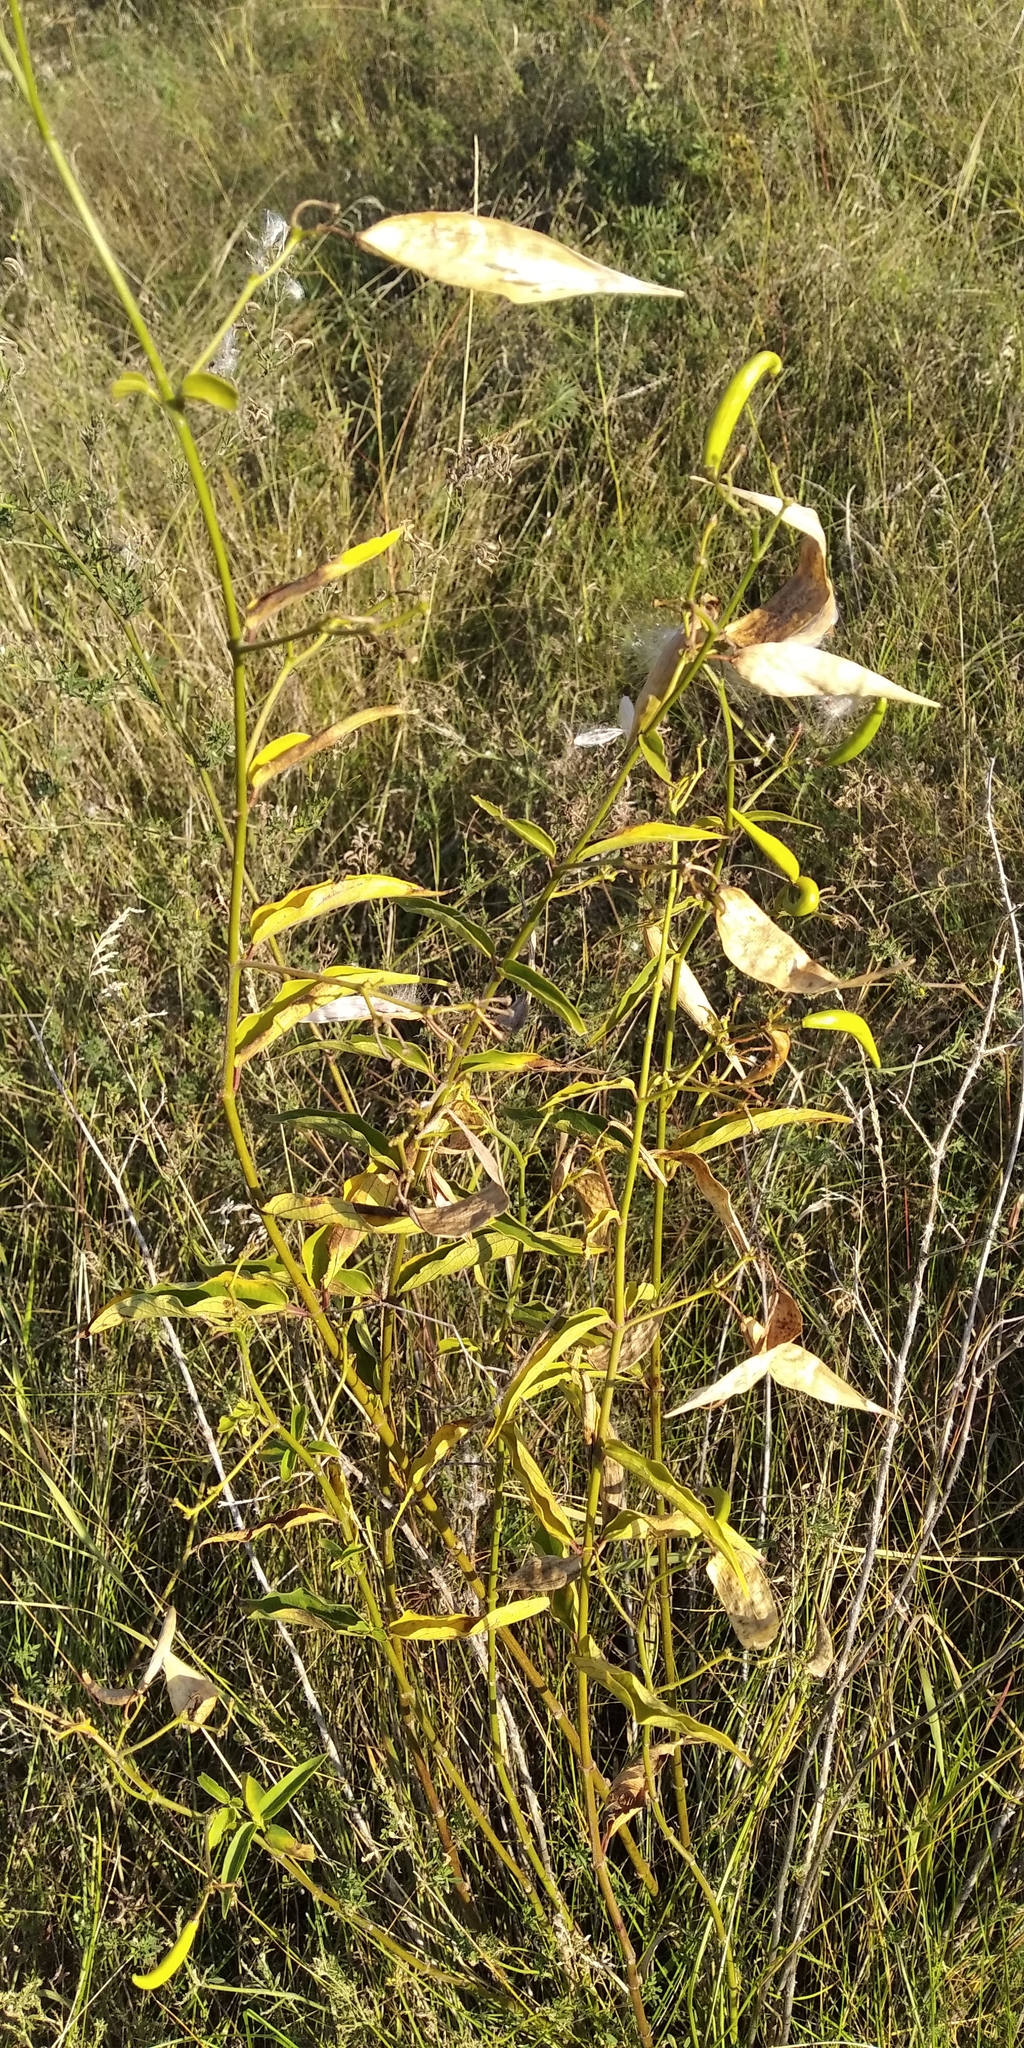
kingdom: Plantae
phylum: Tracheophyta
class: Magnoliopsida
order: Gentianales
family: Apocynaceae
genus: Asclepias
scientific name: Asclepias syriaca
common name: Common milkweed
